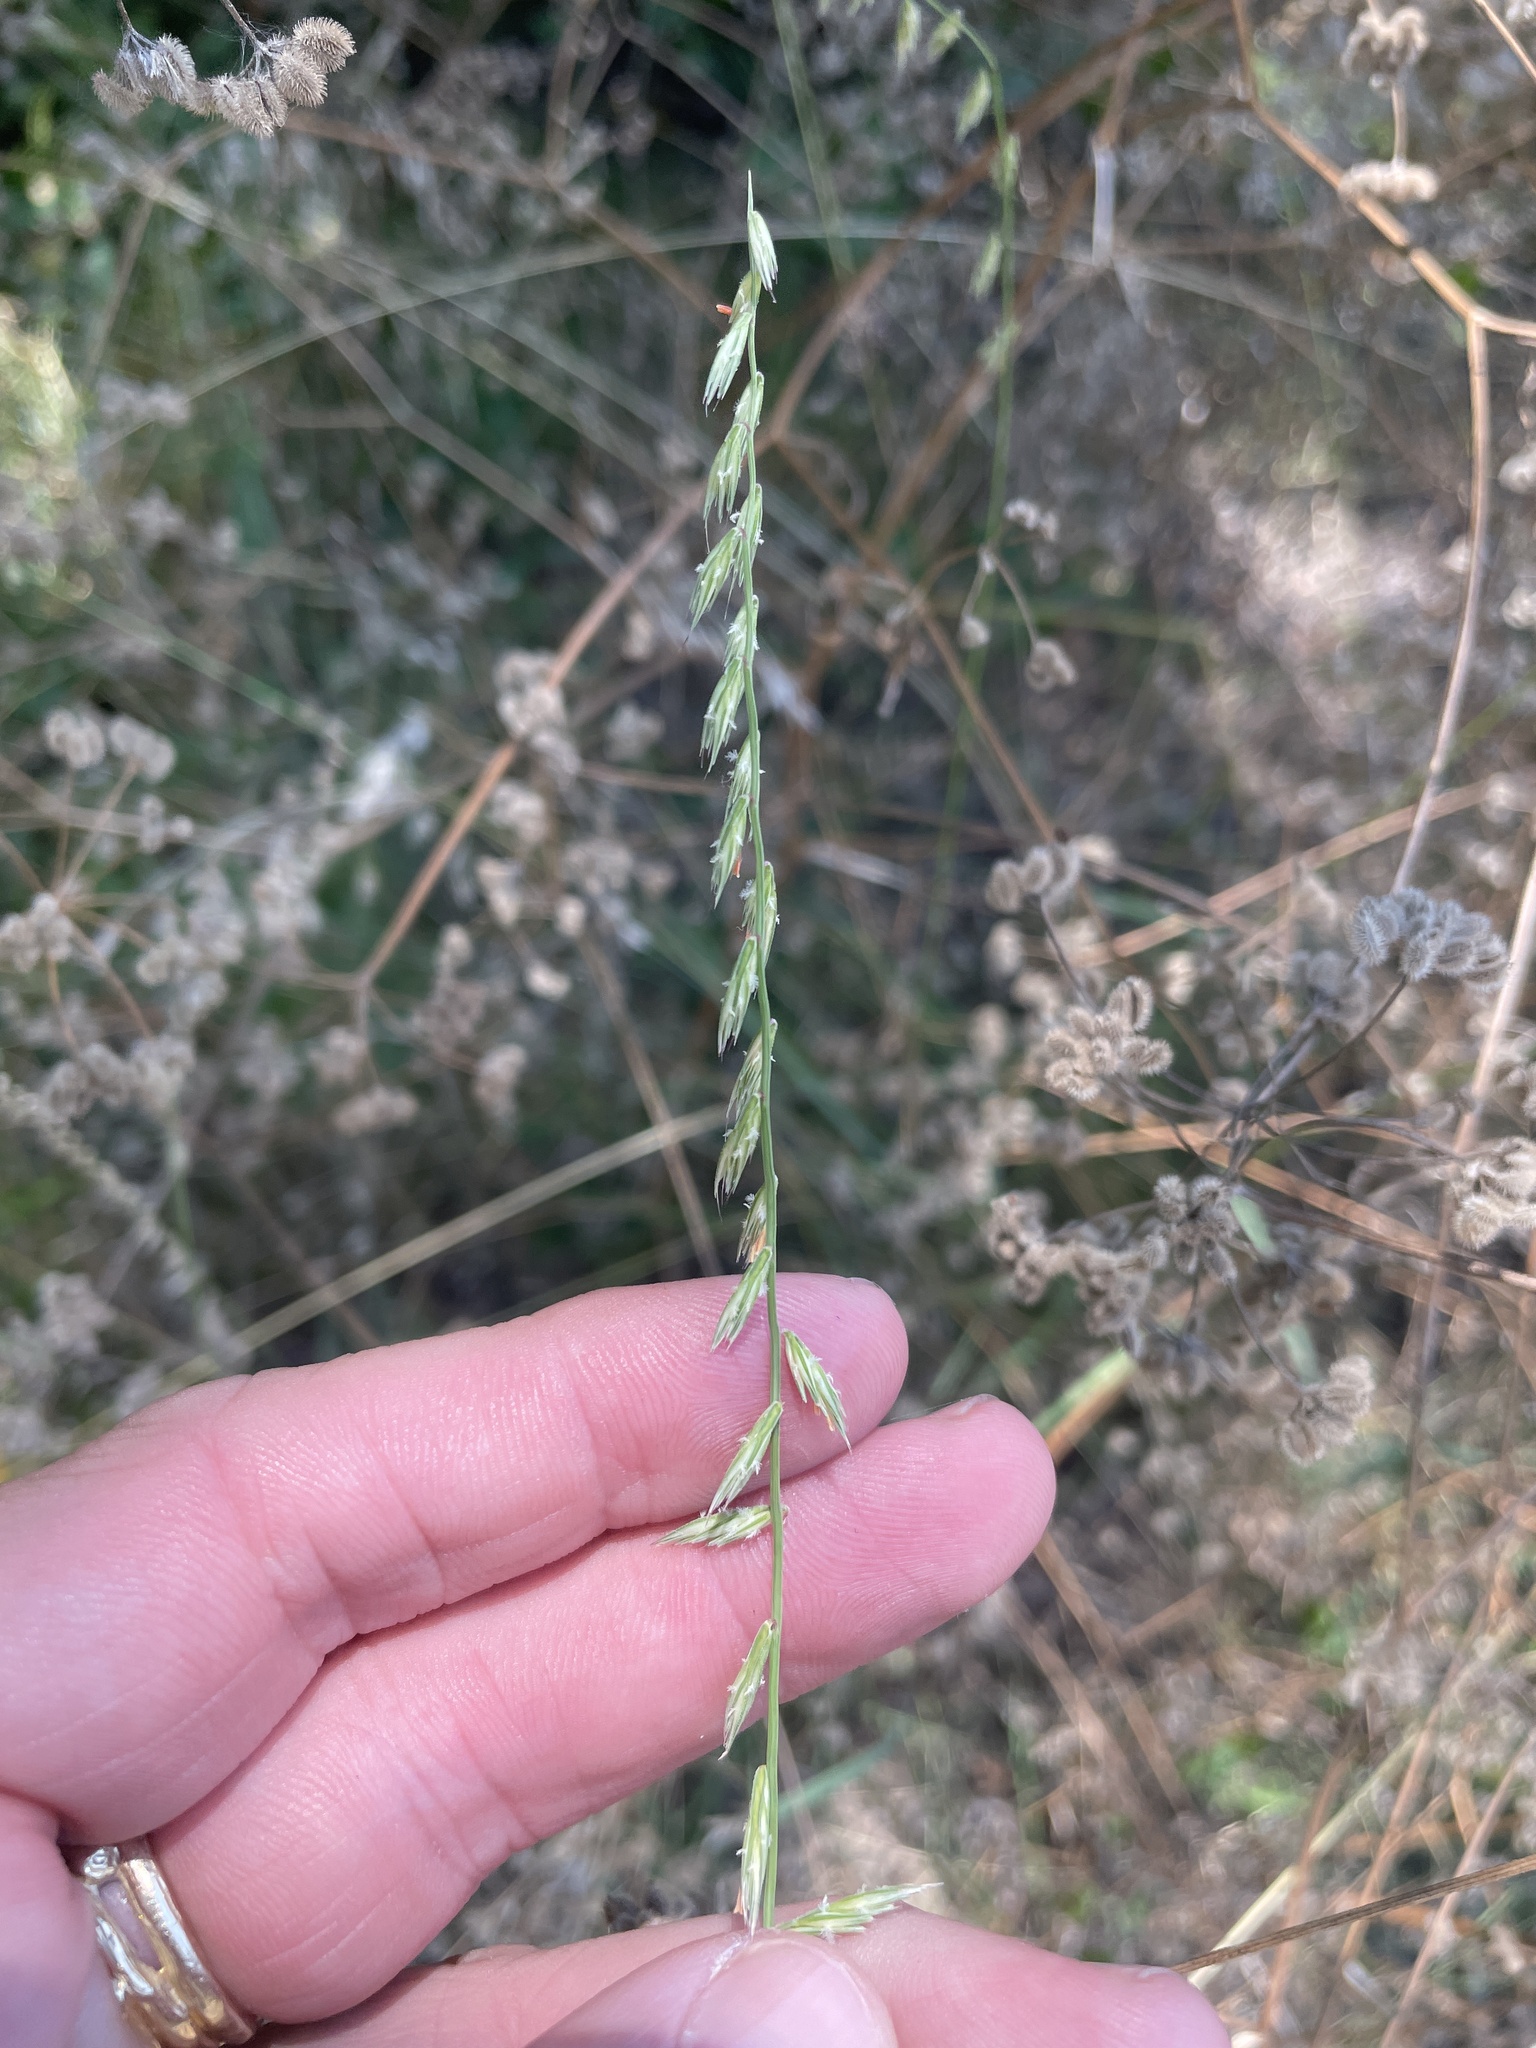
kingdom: Plantae
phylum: Tracheophyta
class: Liliopsida
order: Poales
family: Poaceae
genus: Bouteloua
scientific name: Bouteloua curtipendula
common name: Side-oats grama
